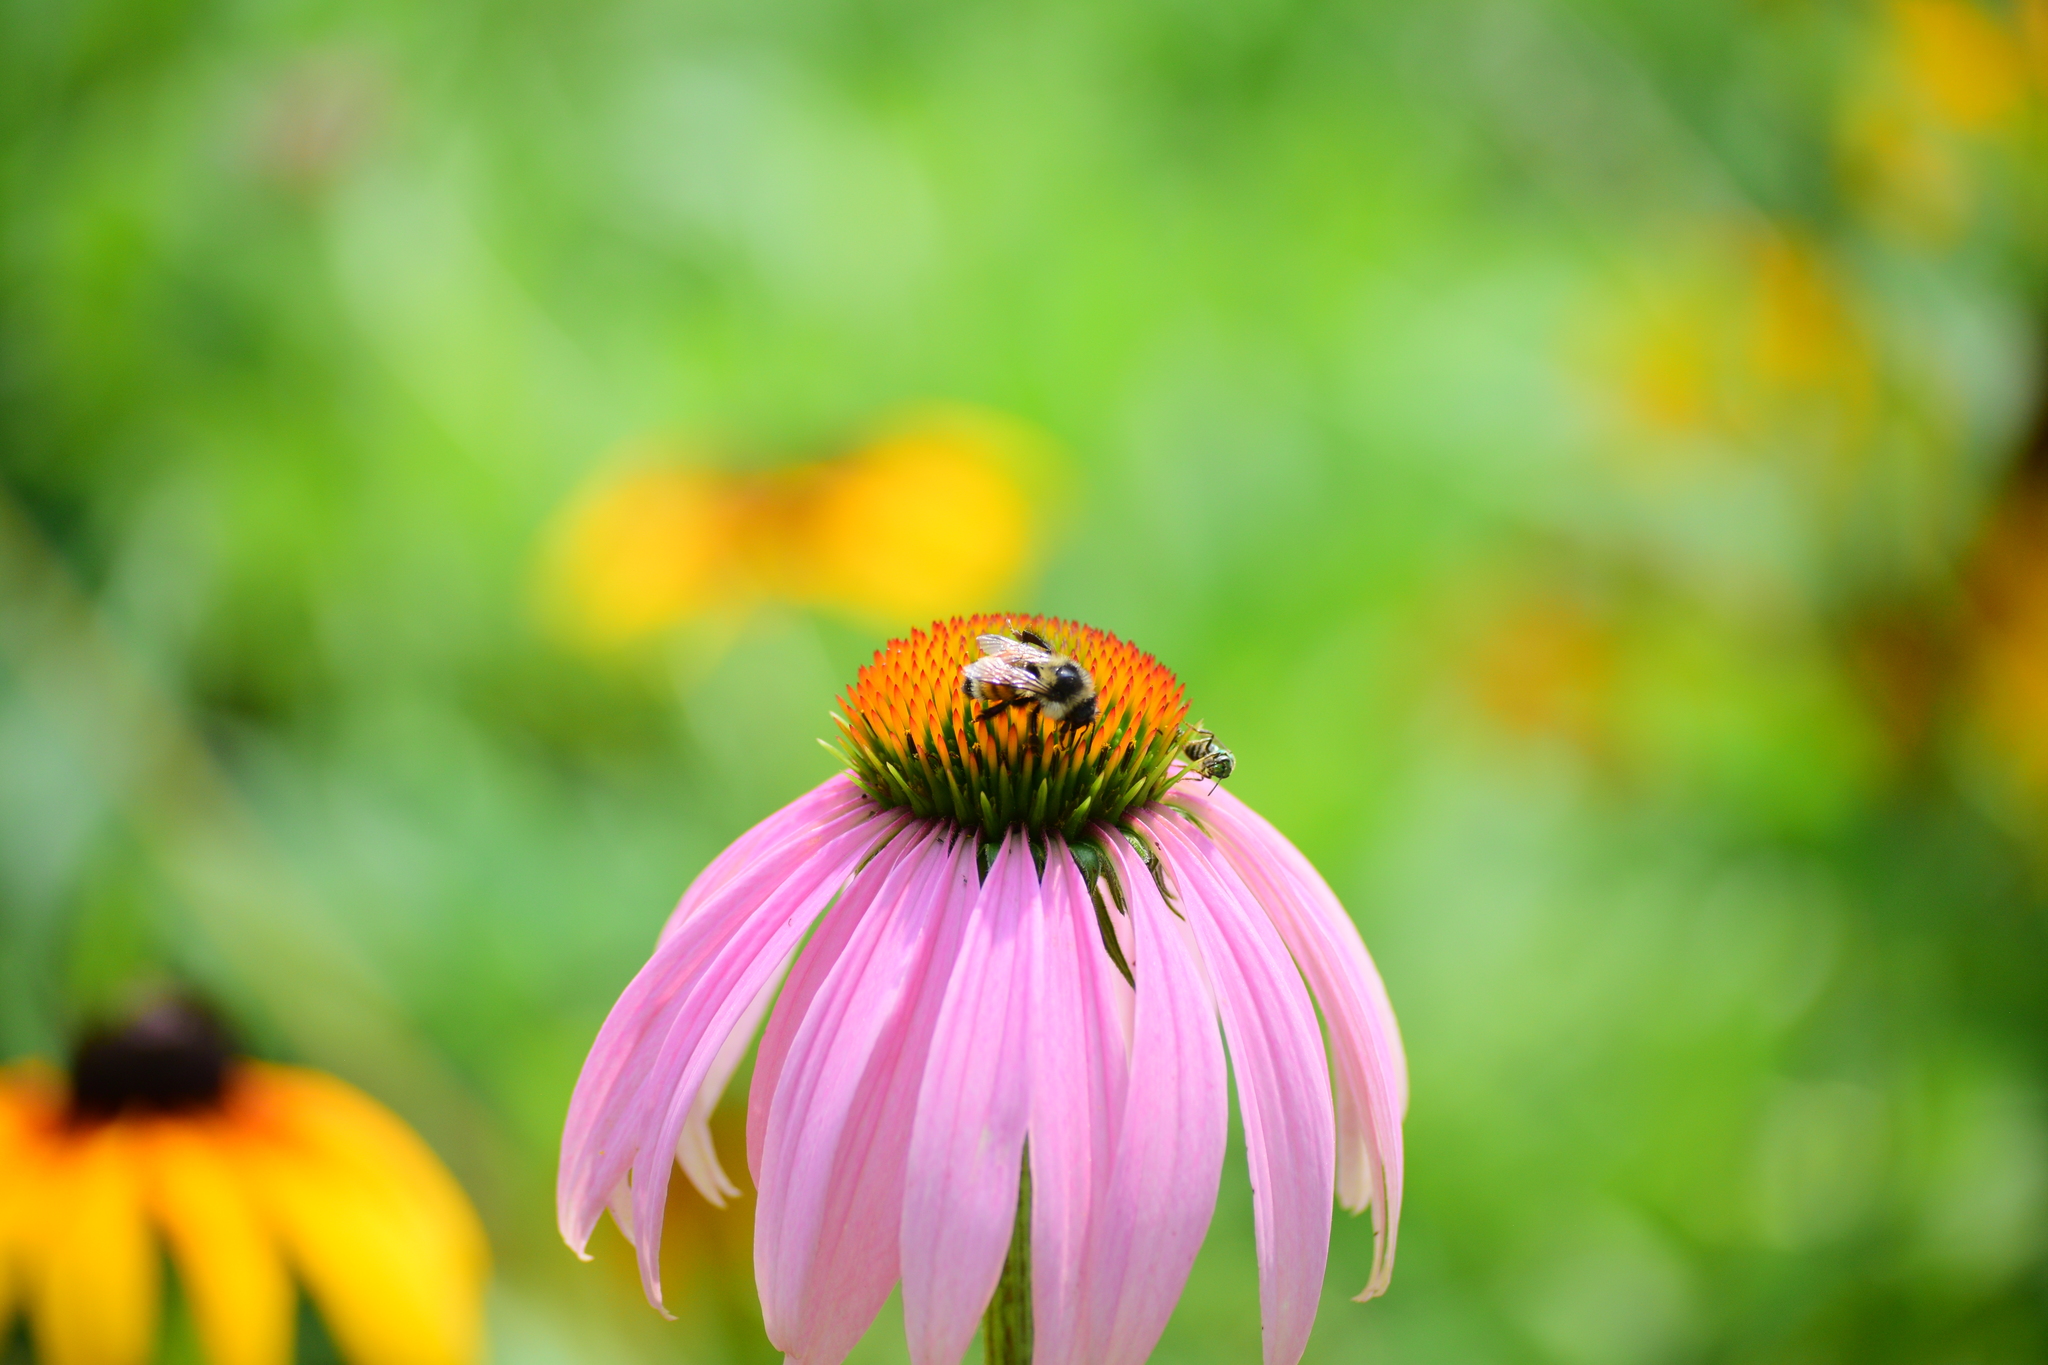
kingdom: Animalia
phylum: Arthropoda
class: Insecta
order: Hymenoptera
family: Apidae
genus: Bombus
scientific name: Bombus ternarius
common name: Tri-colored bumble bee
